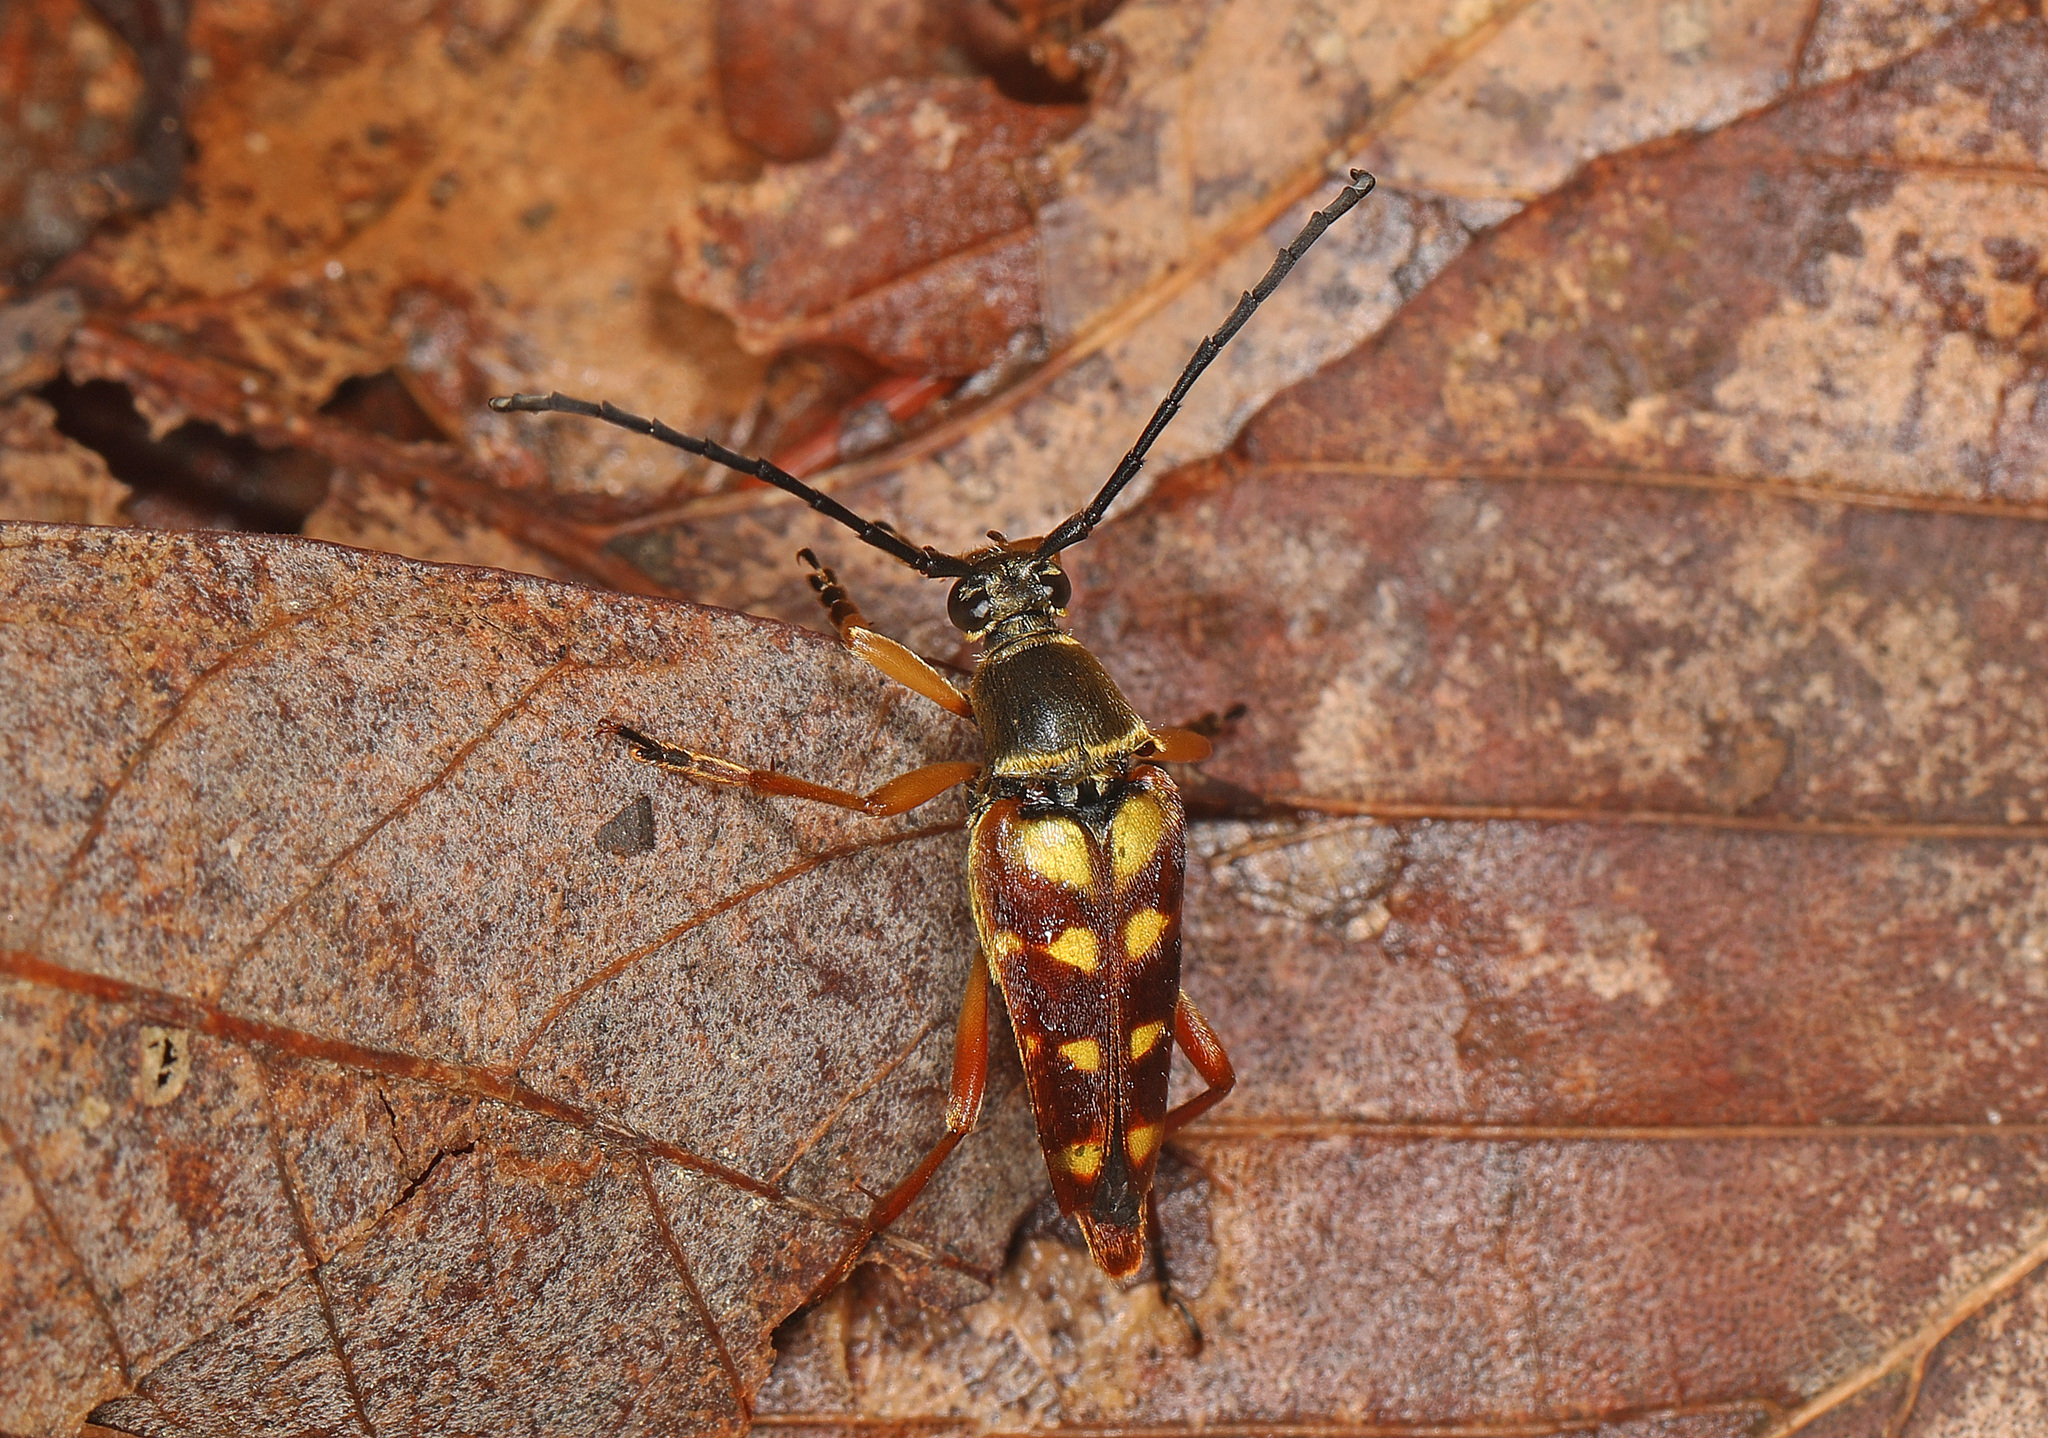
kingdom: Animalia
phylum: Arthropoda
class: Insecta
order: Coleoptera
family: Cerambycidae
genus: Typocerus
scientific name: Typocerus velutinus
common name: Banded longhorn beetle
